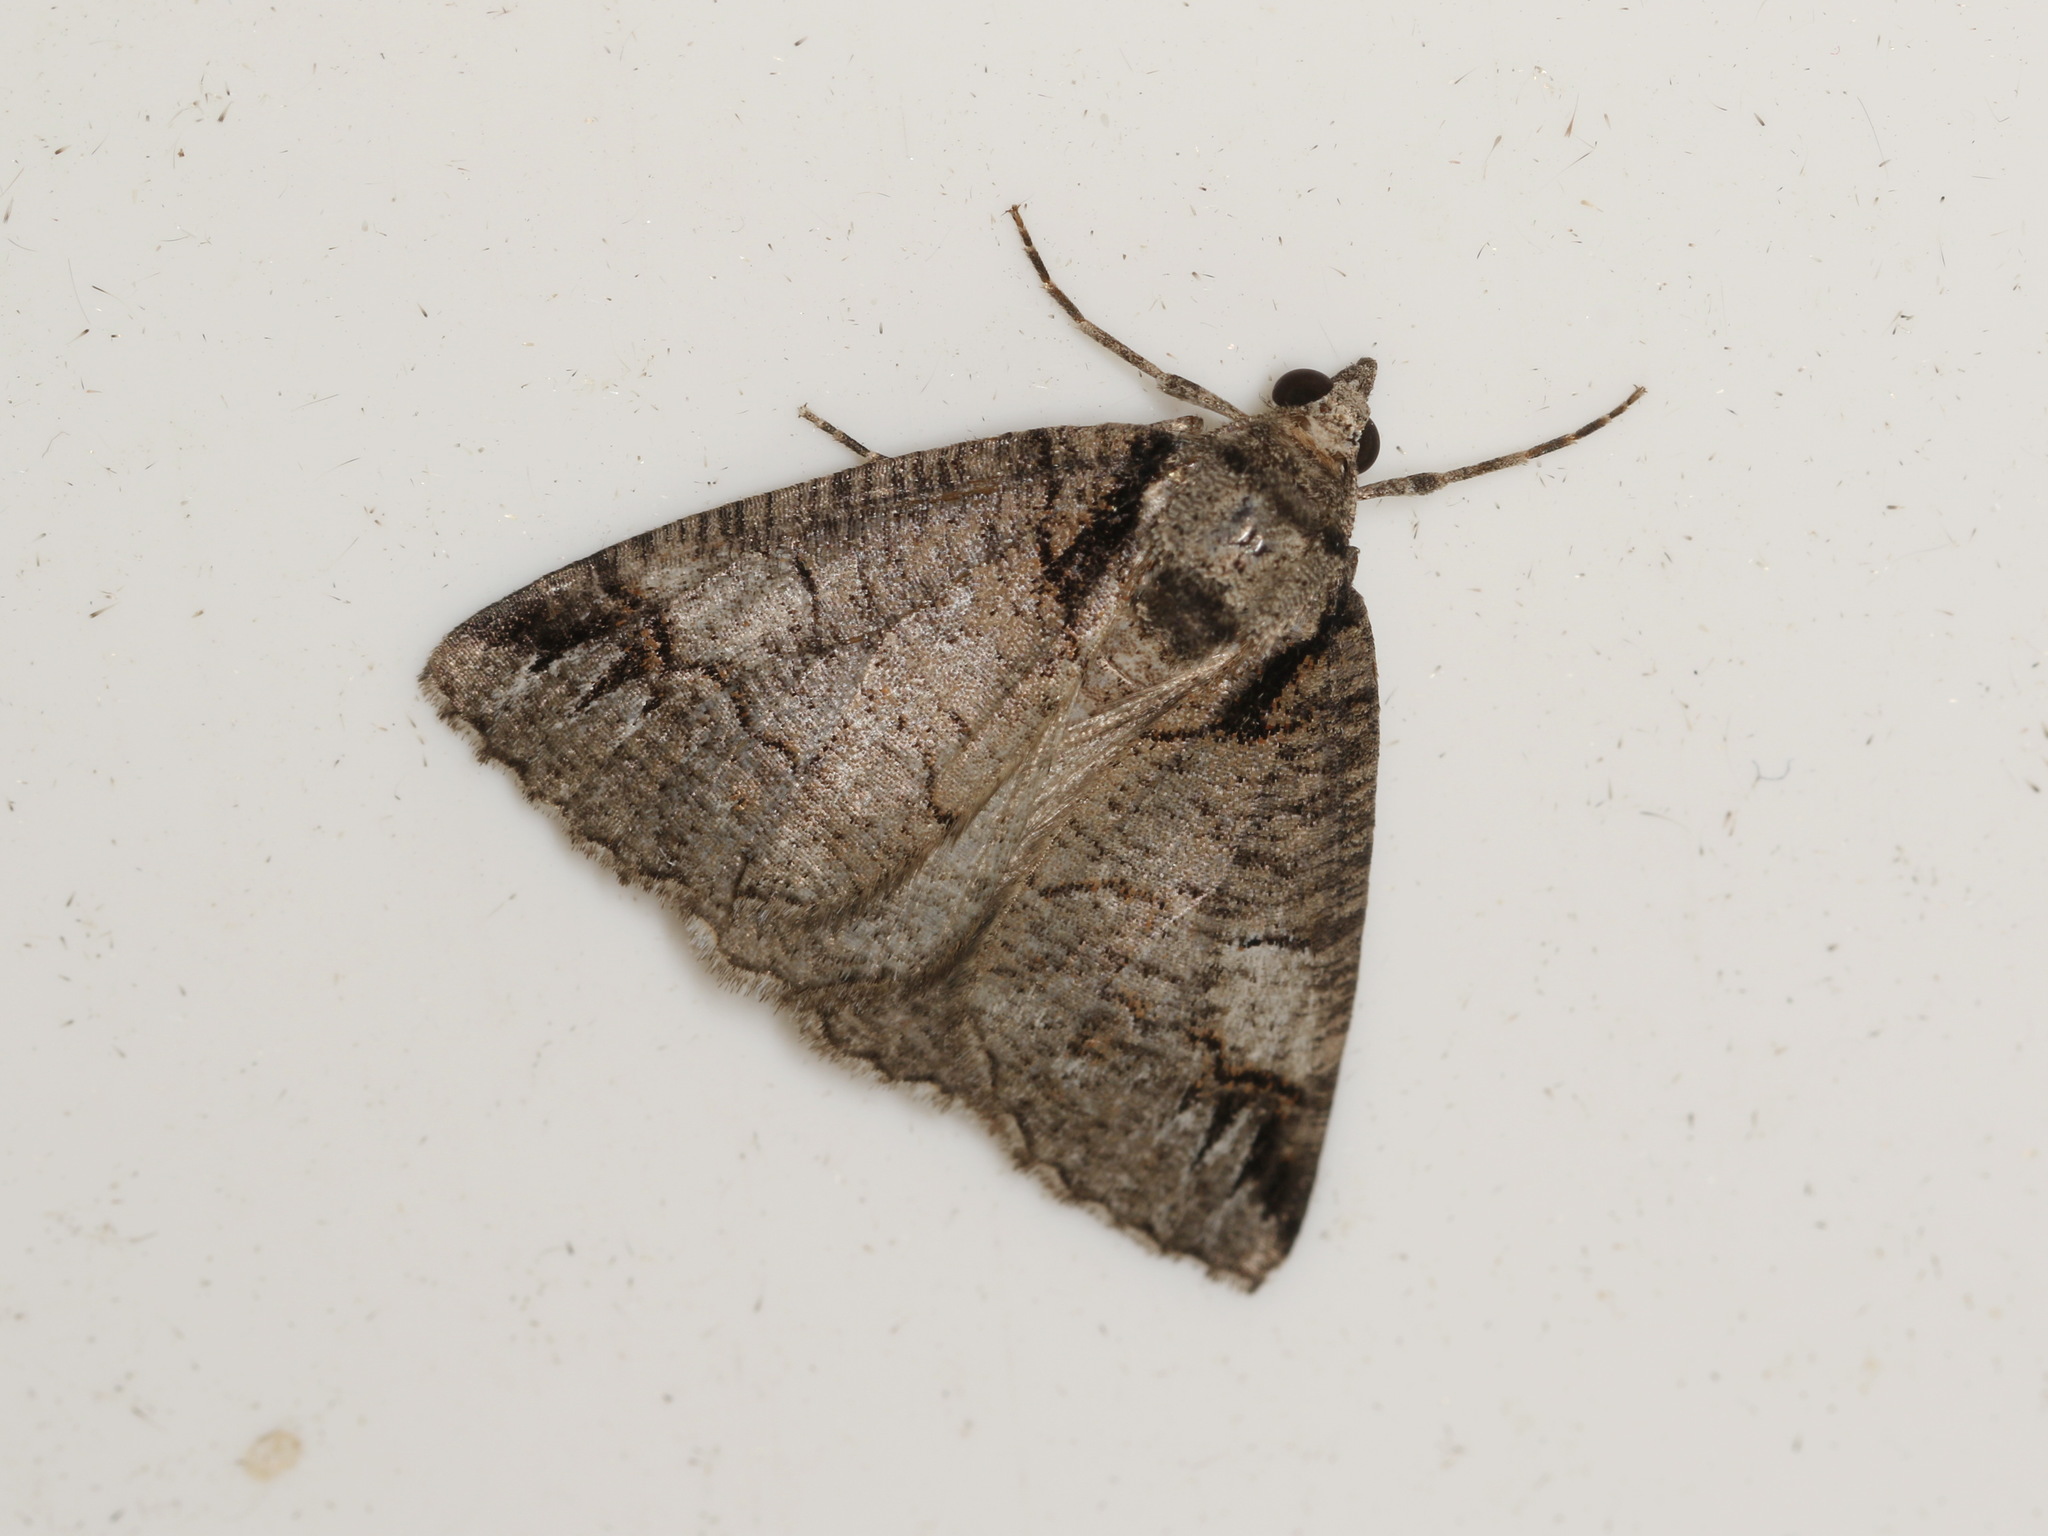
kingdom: Animalia
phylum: Arthropoda
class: Insecta
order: Lepidoptera
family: Geometridae
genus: Austroterpna
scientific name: Austroterpna paratorna
